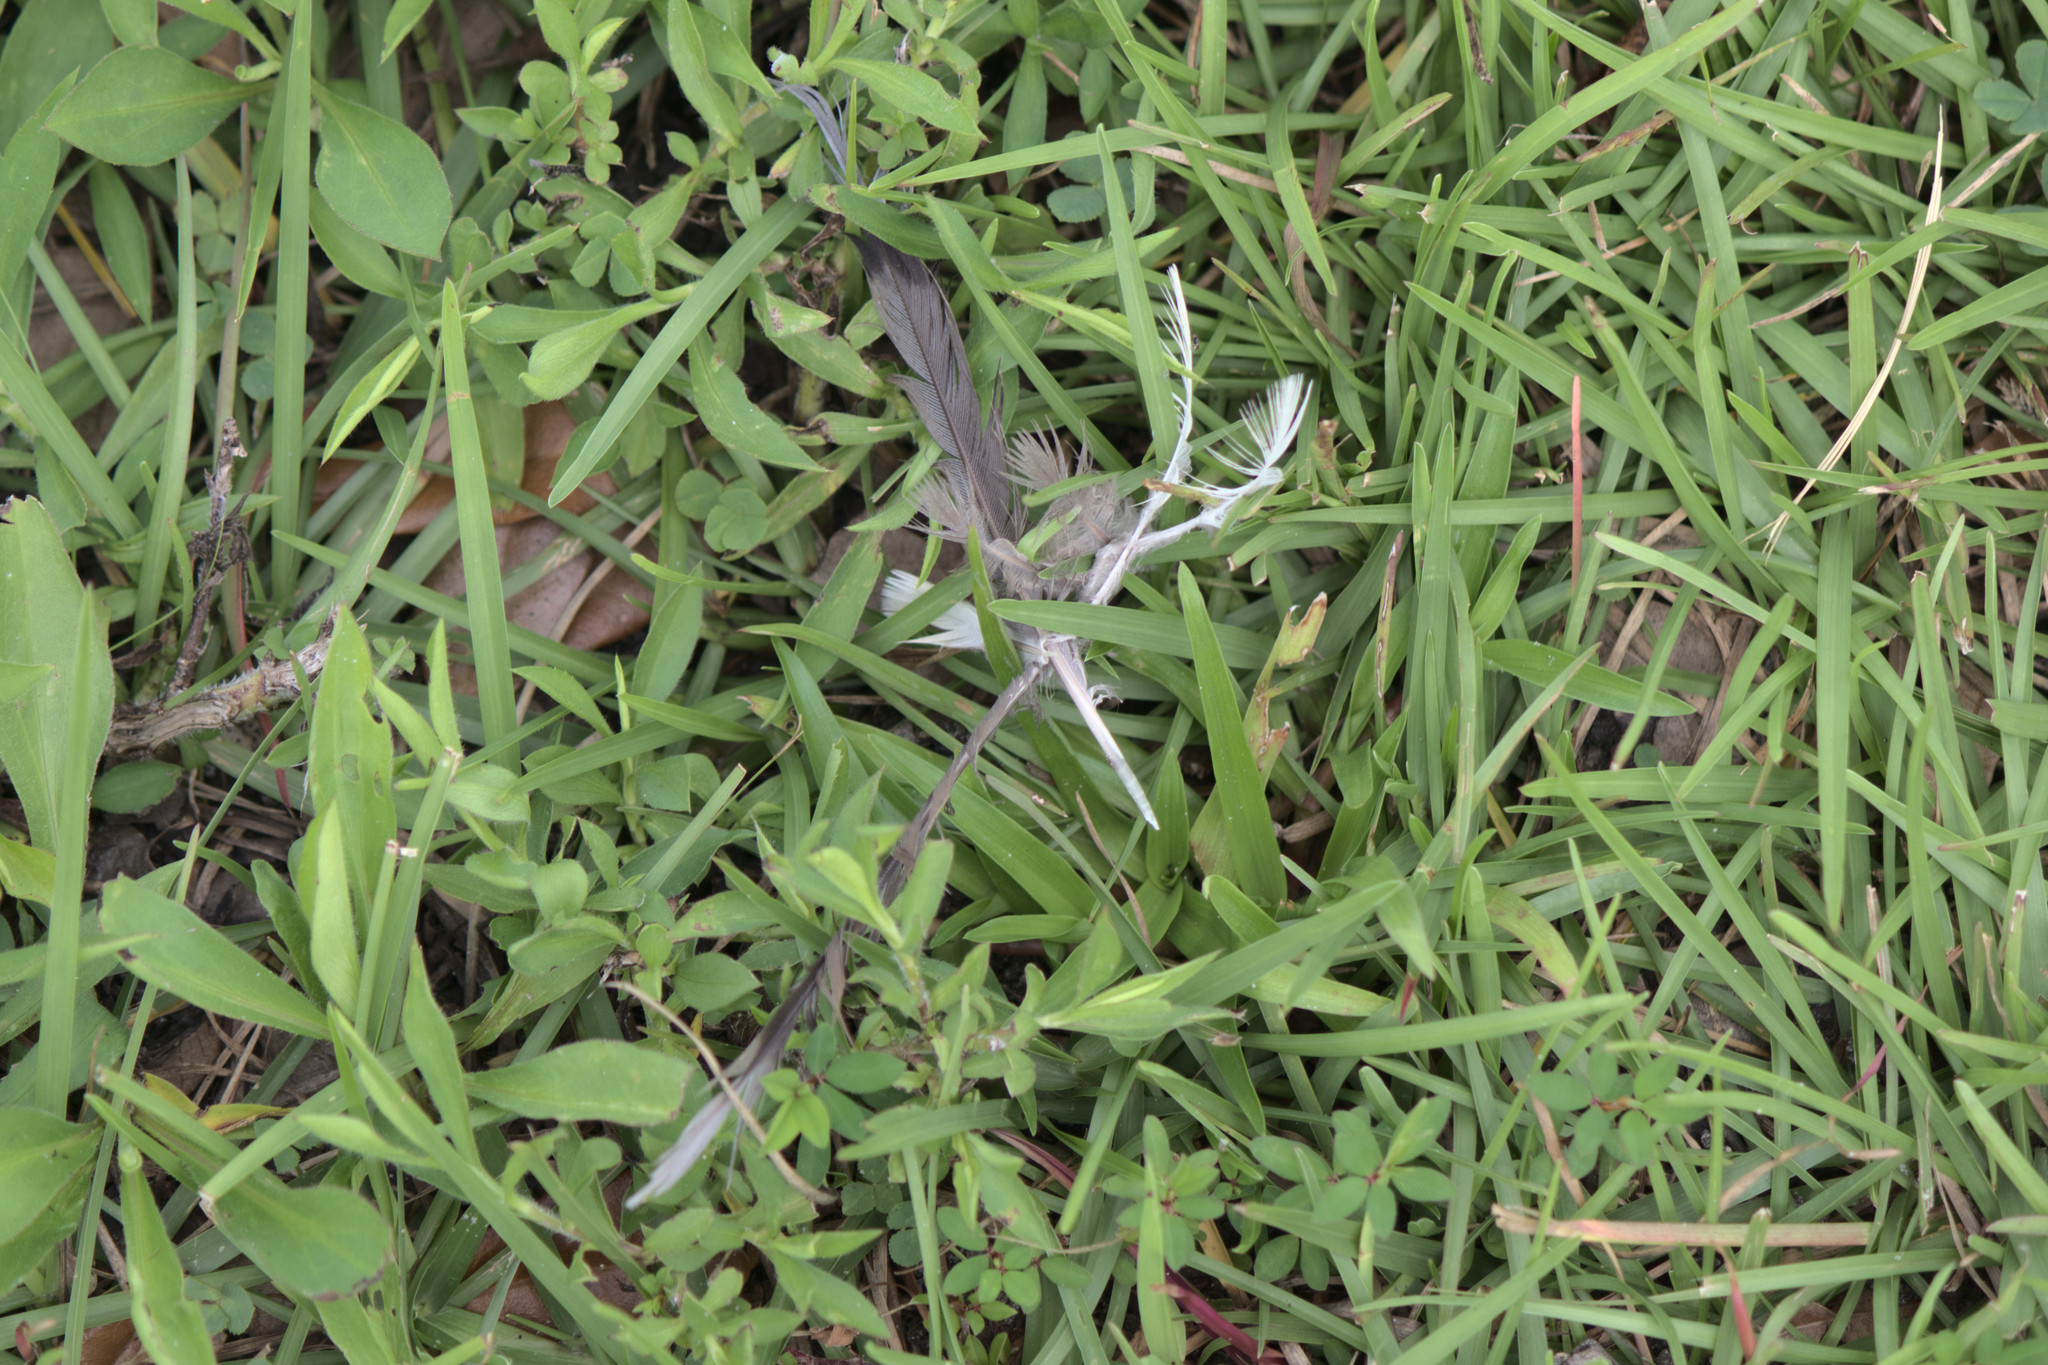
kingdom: Animalia
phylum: Chordata
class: Aves
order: Columbiformes
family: Columbidae
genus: Zenaida
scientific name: Zenaida macroura
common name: Mourning dove
